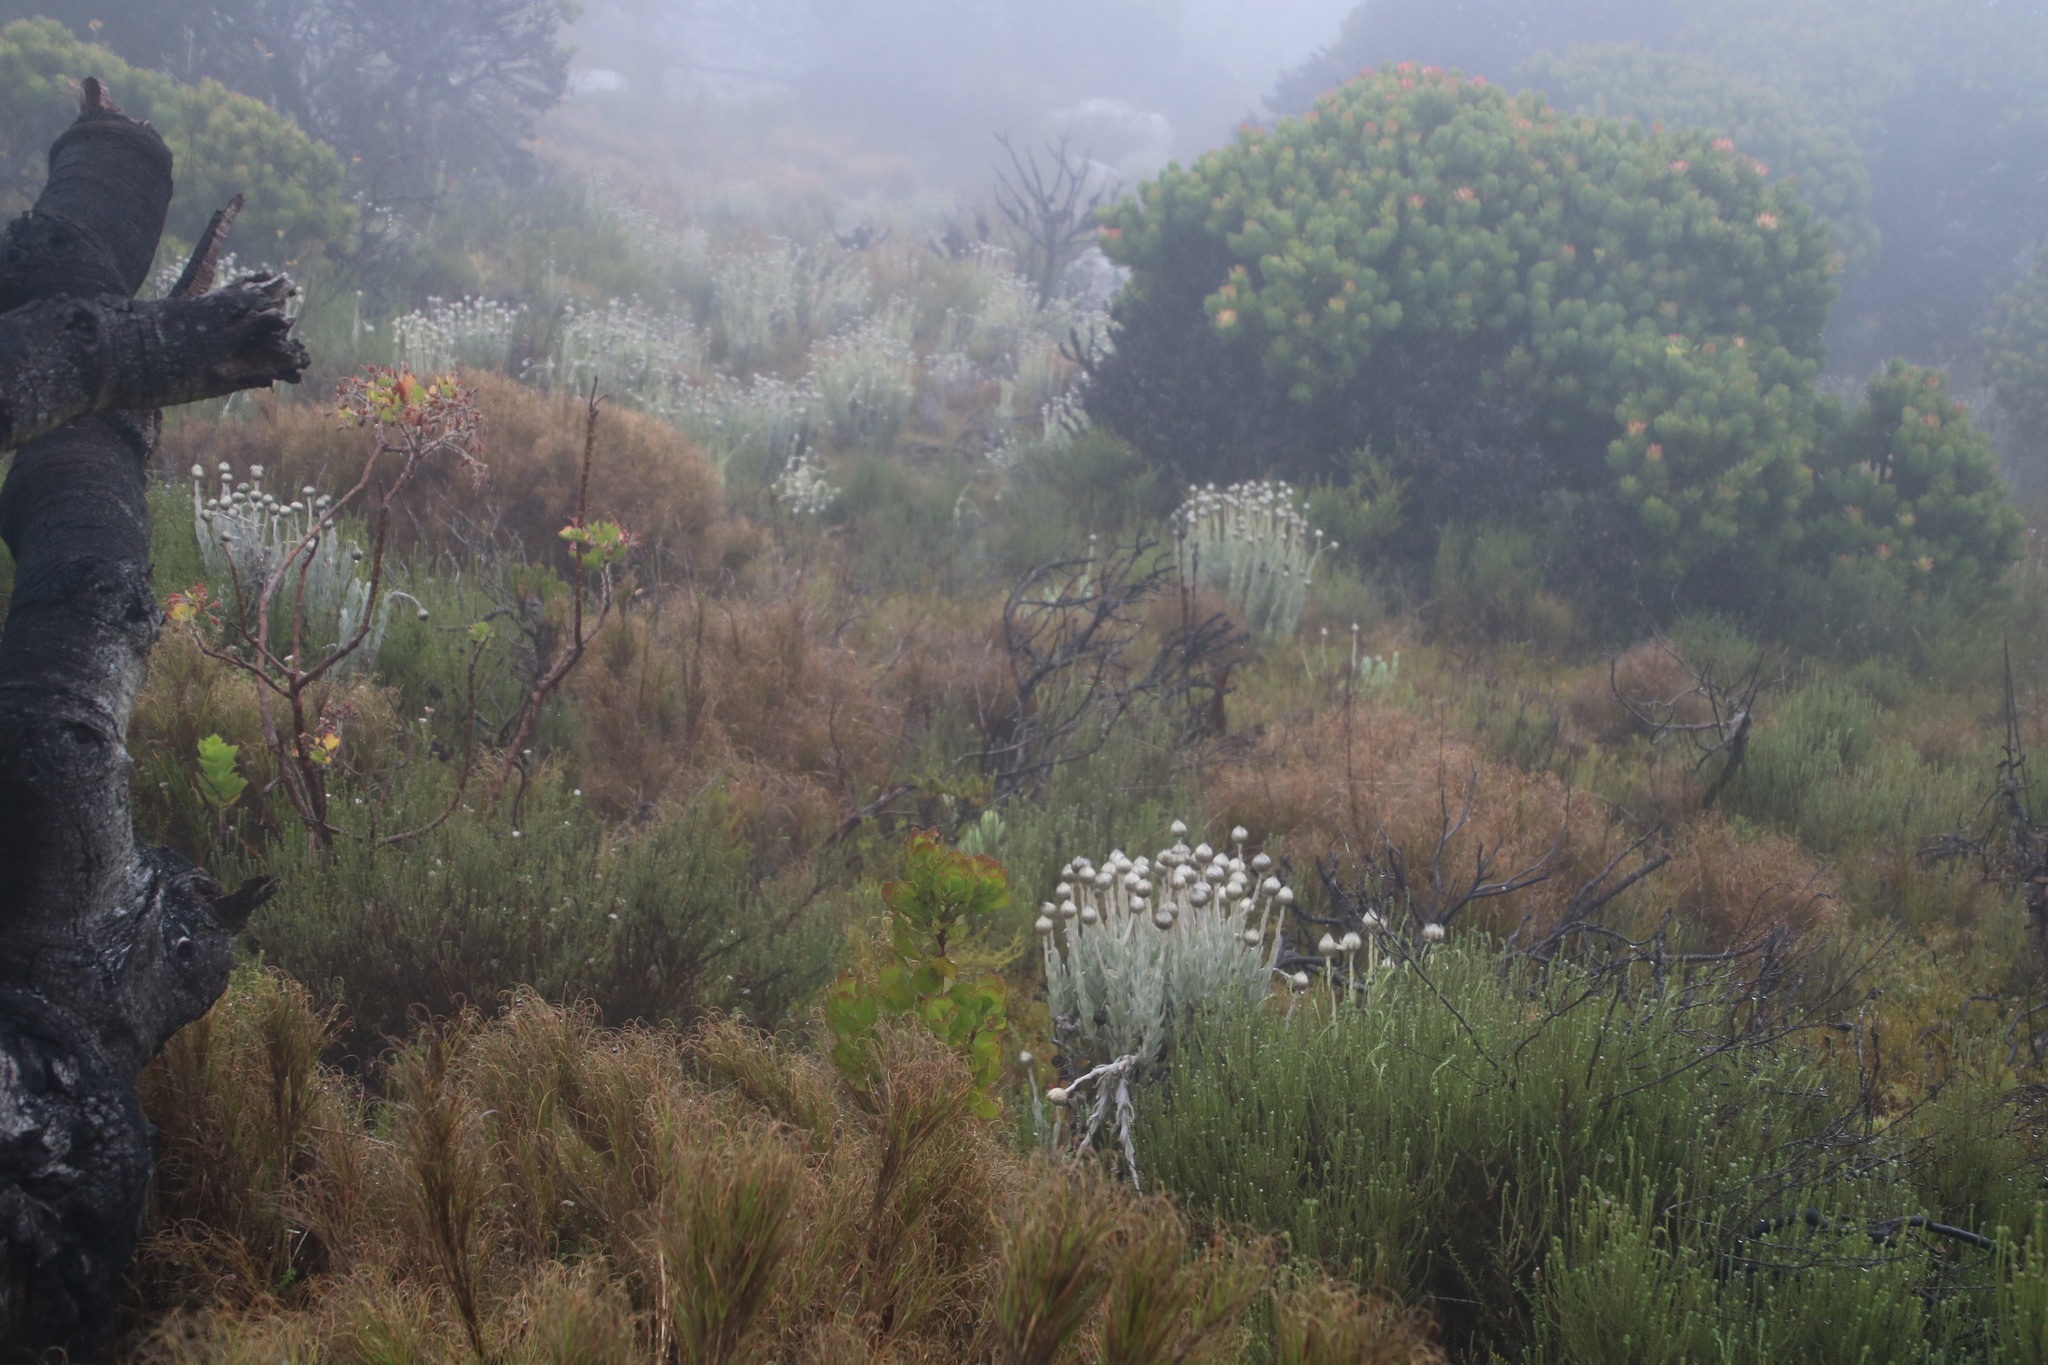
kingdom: Plantae
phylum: Tracheophyta
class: Liliopsida
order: Poales
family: Poaceae
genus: Pseudopentameris
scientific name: Pseudopentameris macrantha
